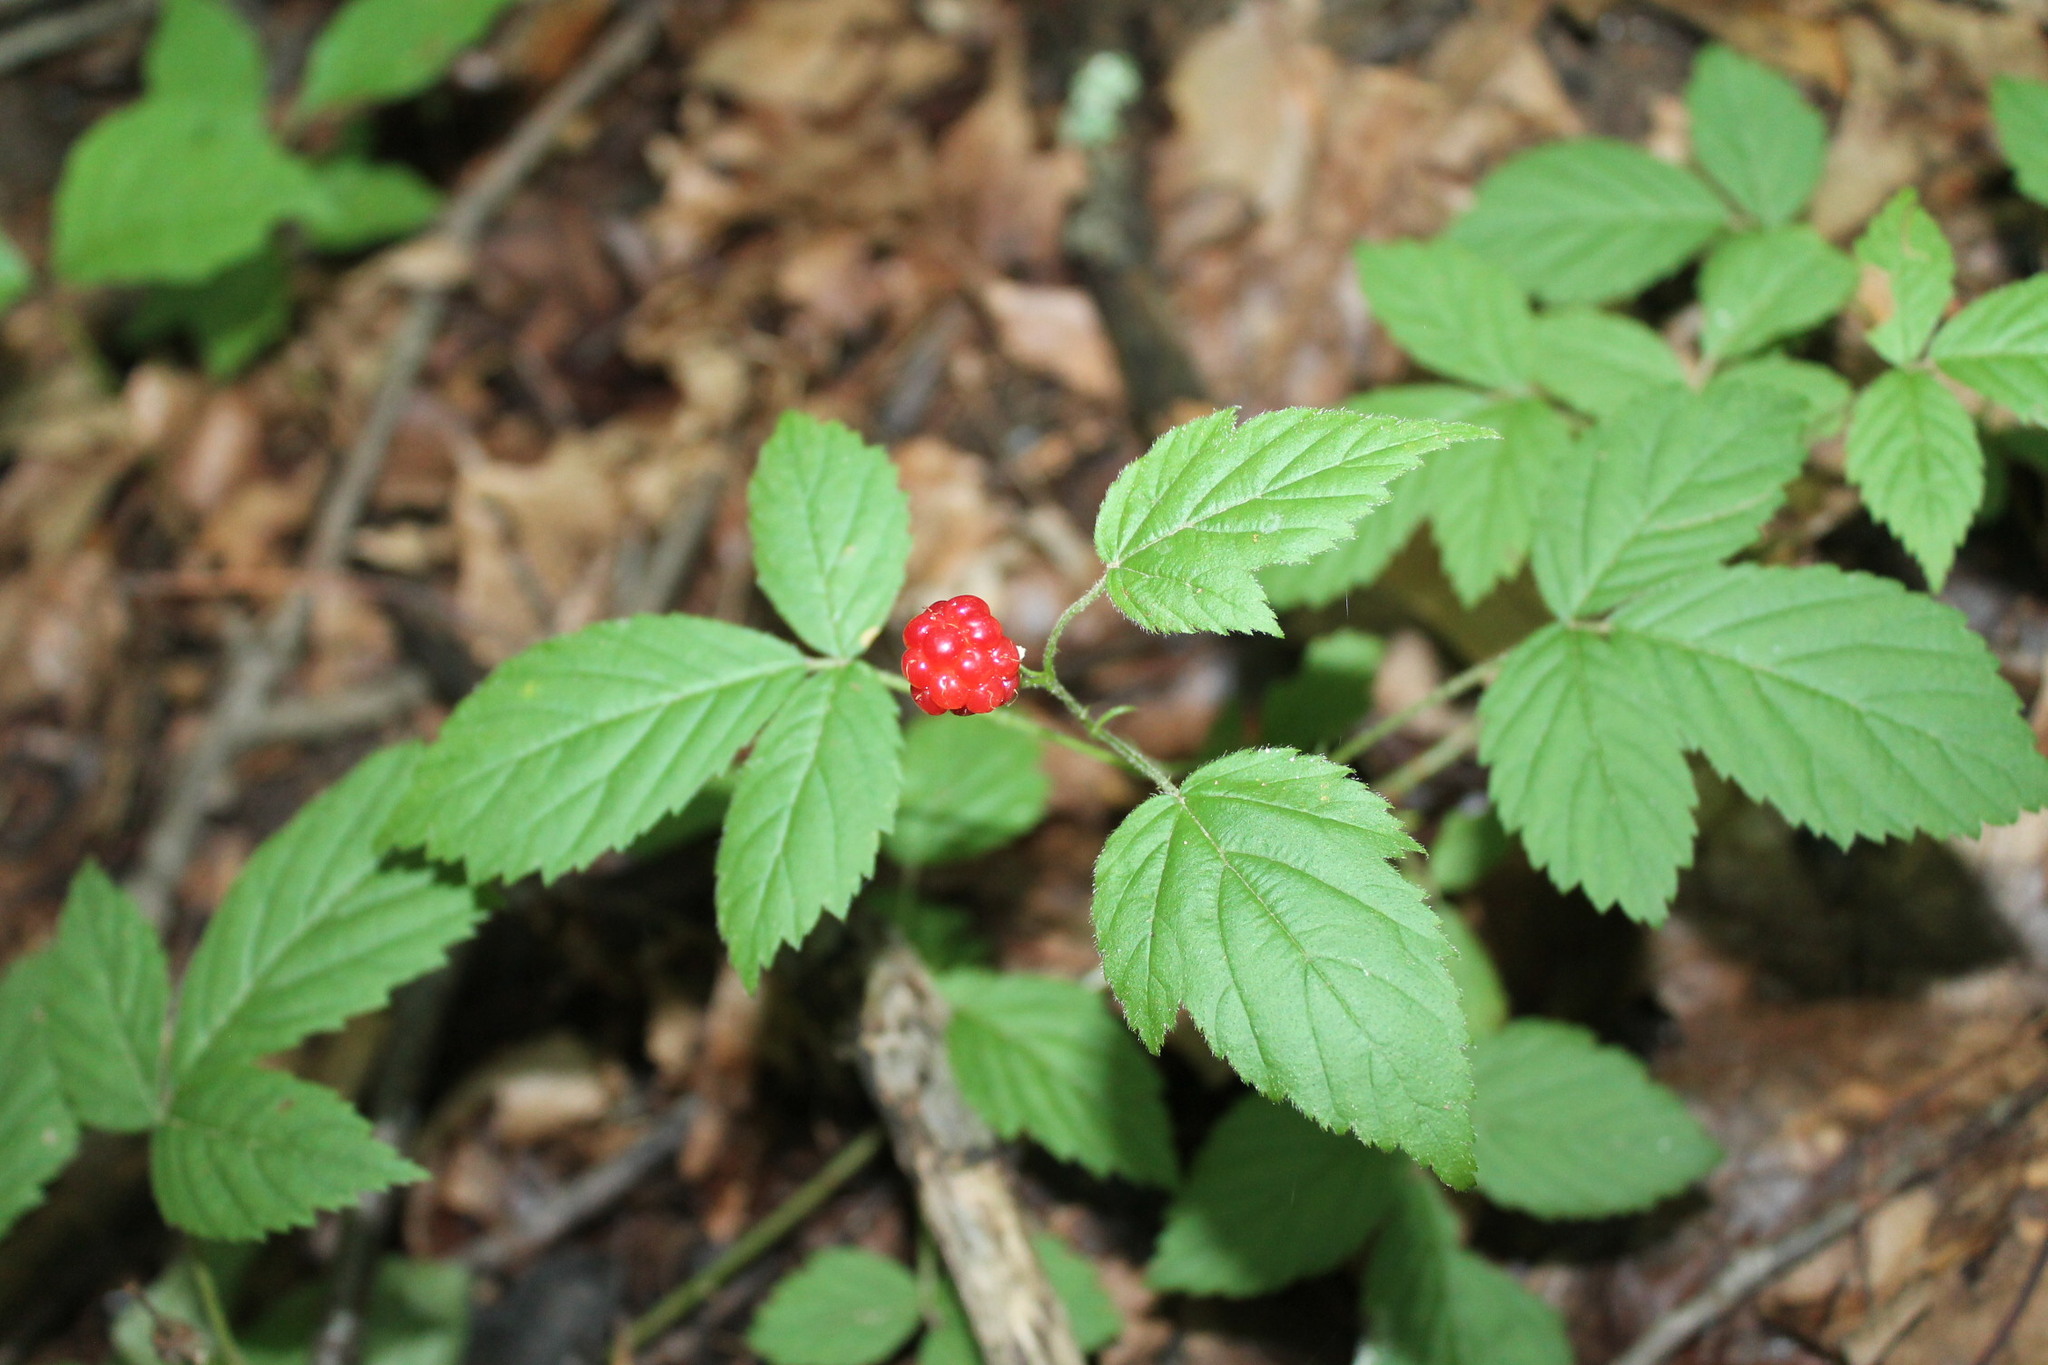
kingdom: Plantae
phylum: Tracheophyta
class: Magnoliopsida
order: Rosales
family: Rosaceae
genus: Rubus
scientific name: Rubus flagellaris
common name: American dewberry
